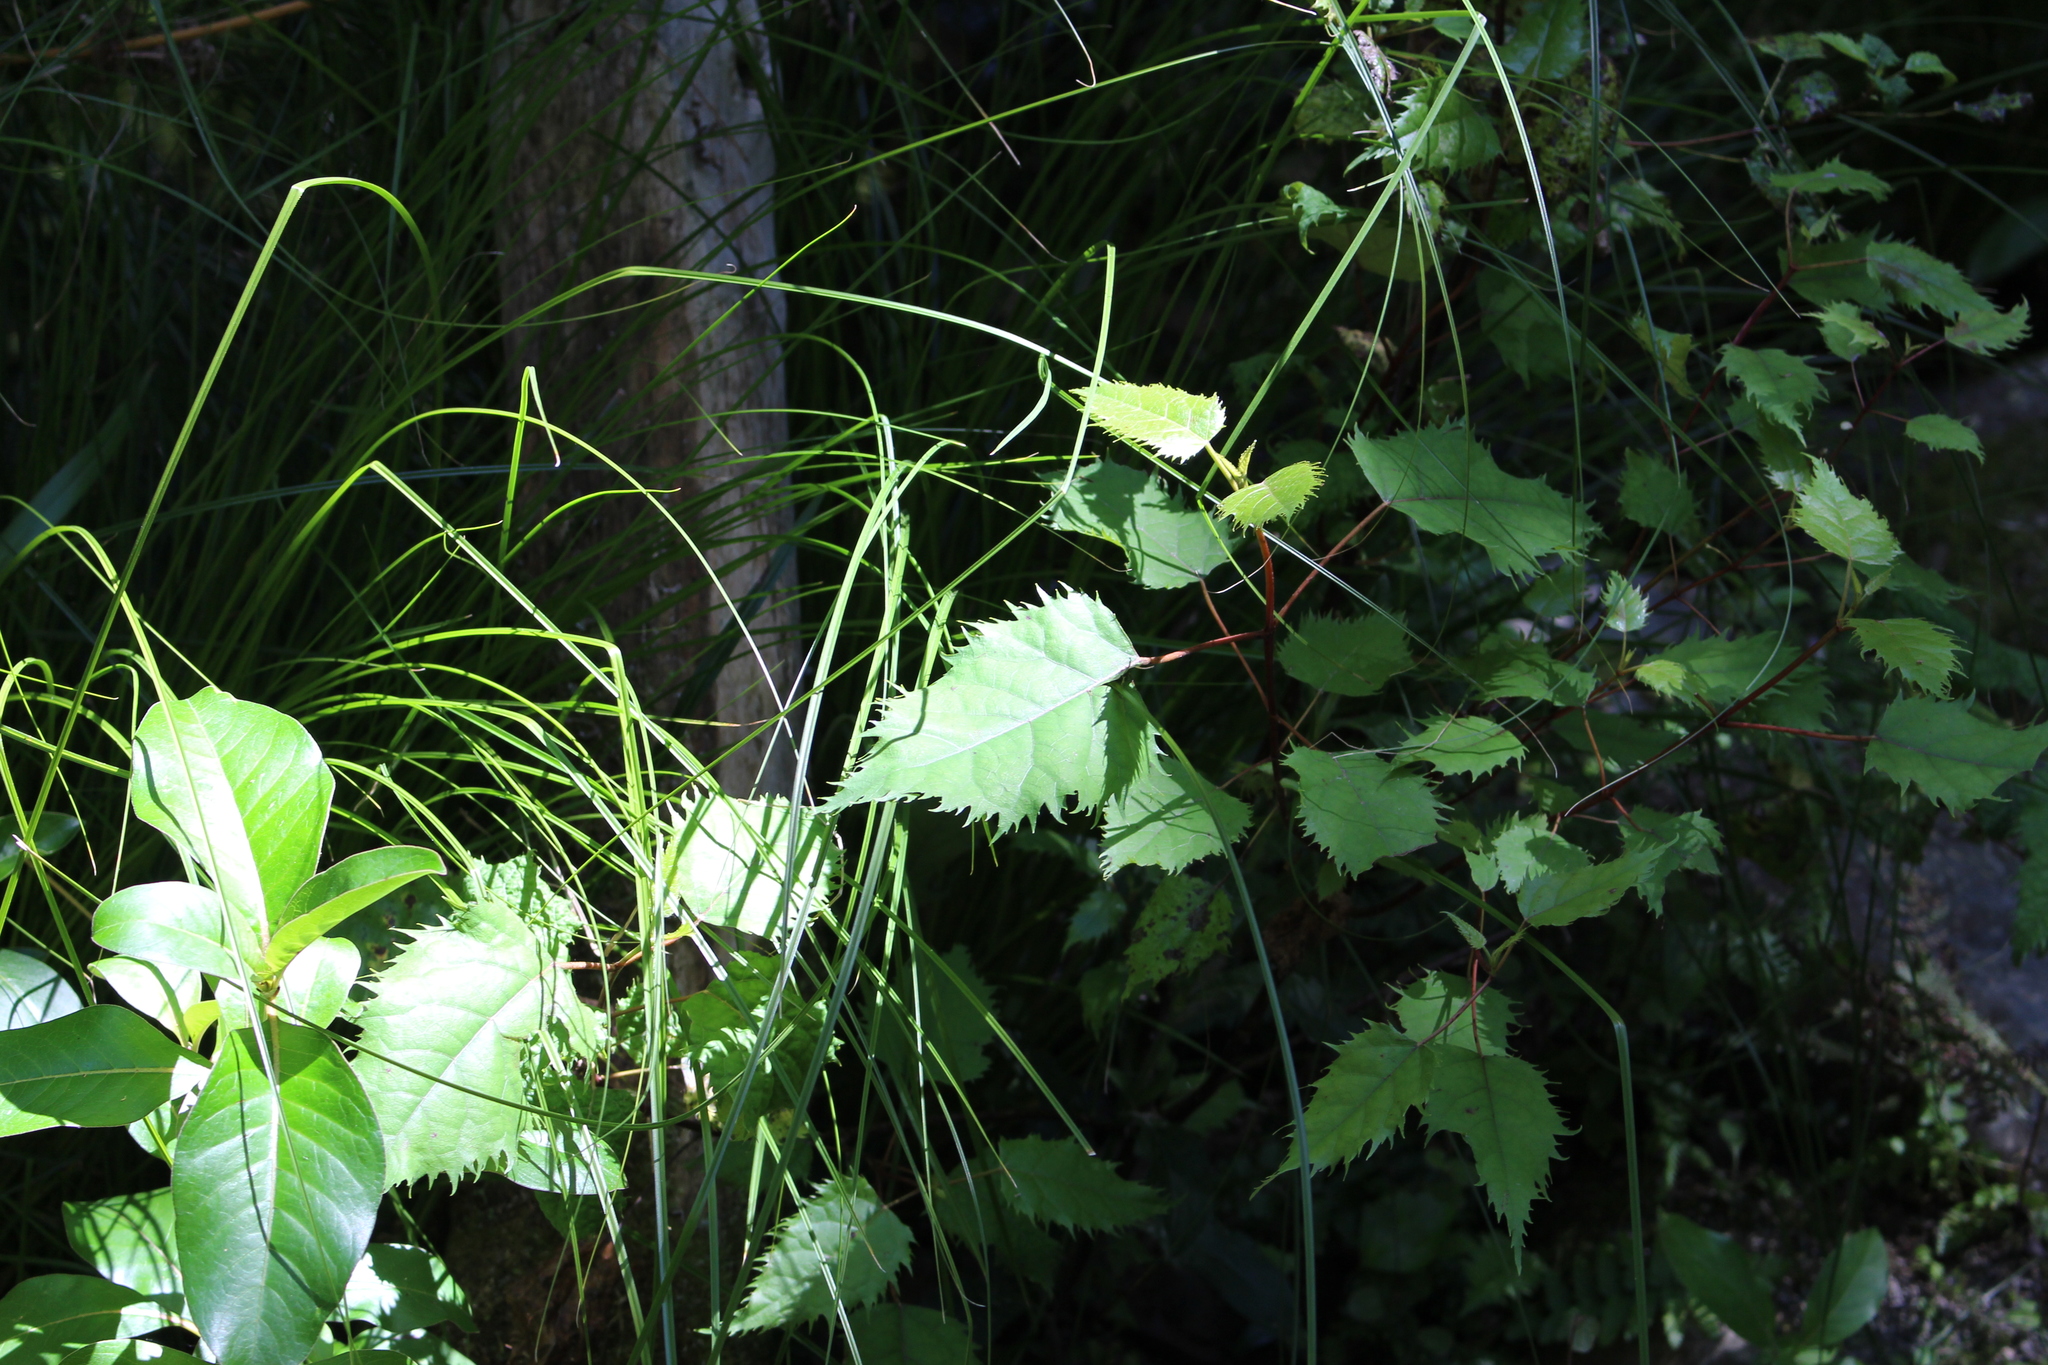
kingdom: Plantae
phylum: Tracheophyta
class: Magnoliopsida
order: Oxalidales
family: Elaeocarpaceae
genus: Aristotelia
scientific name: Aristotelia serrata
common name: New zealand wineberry
